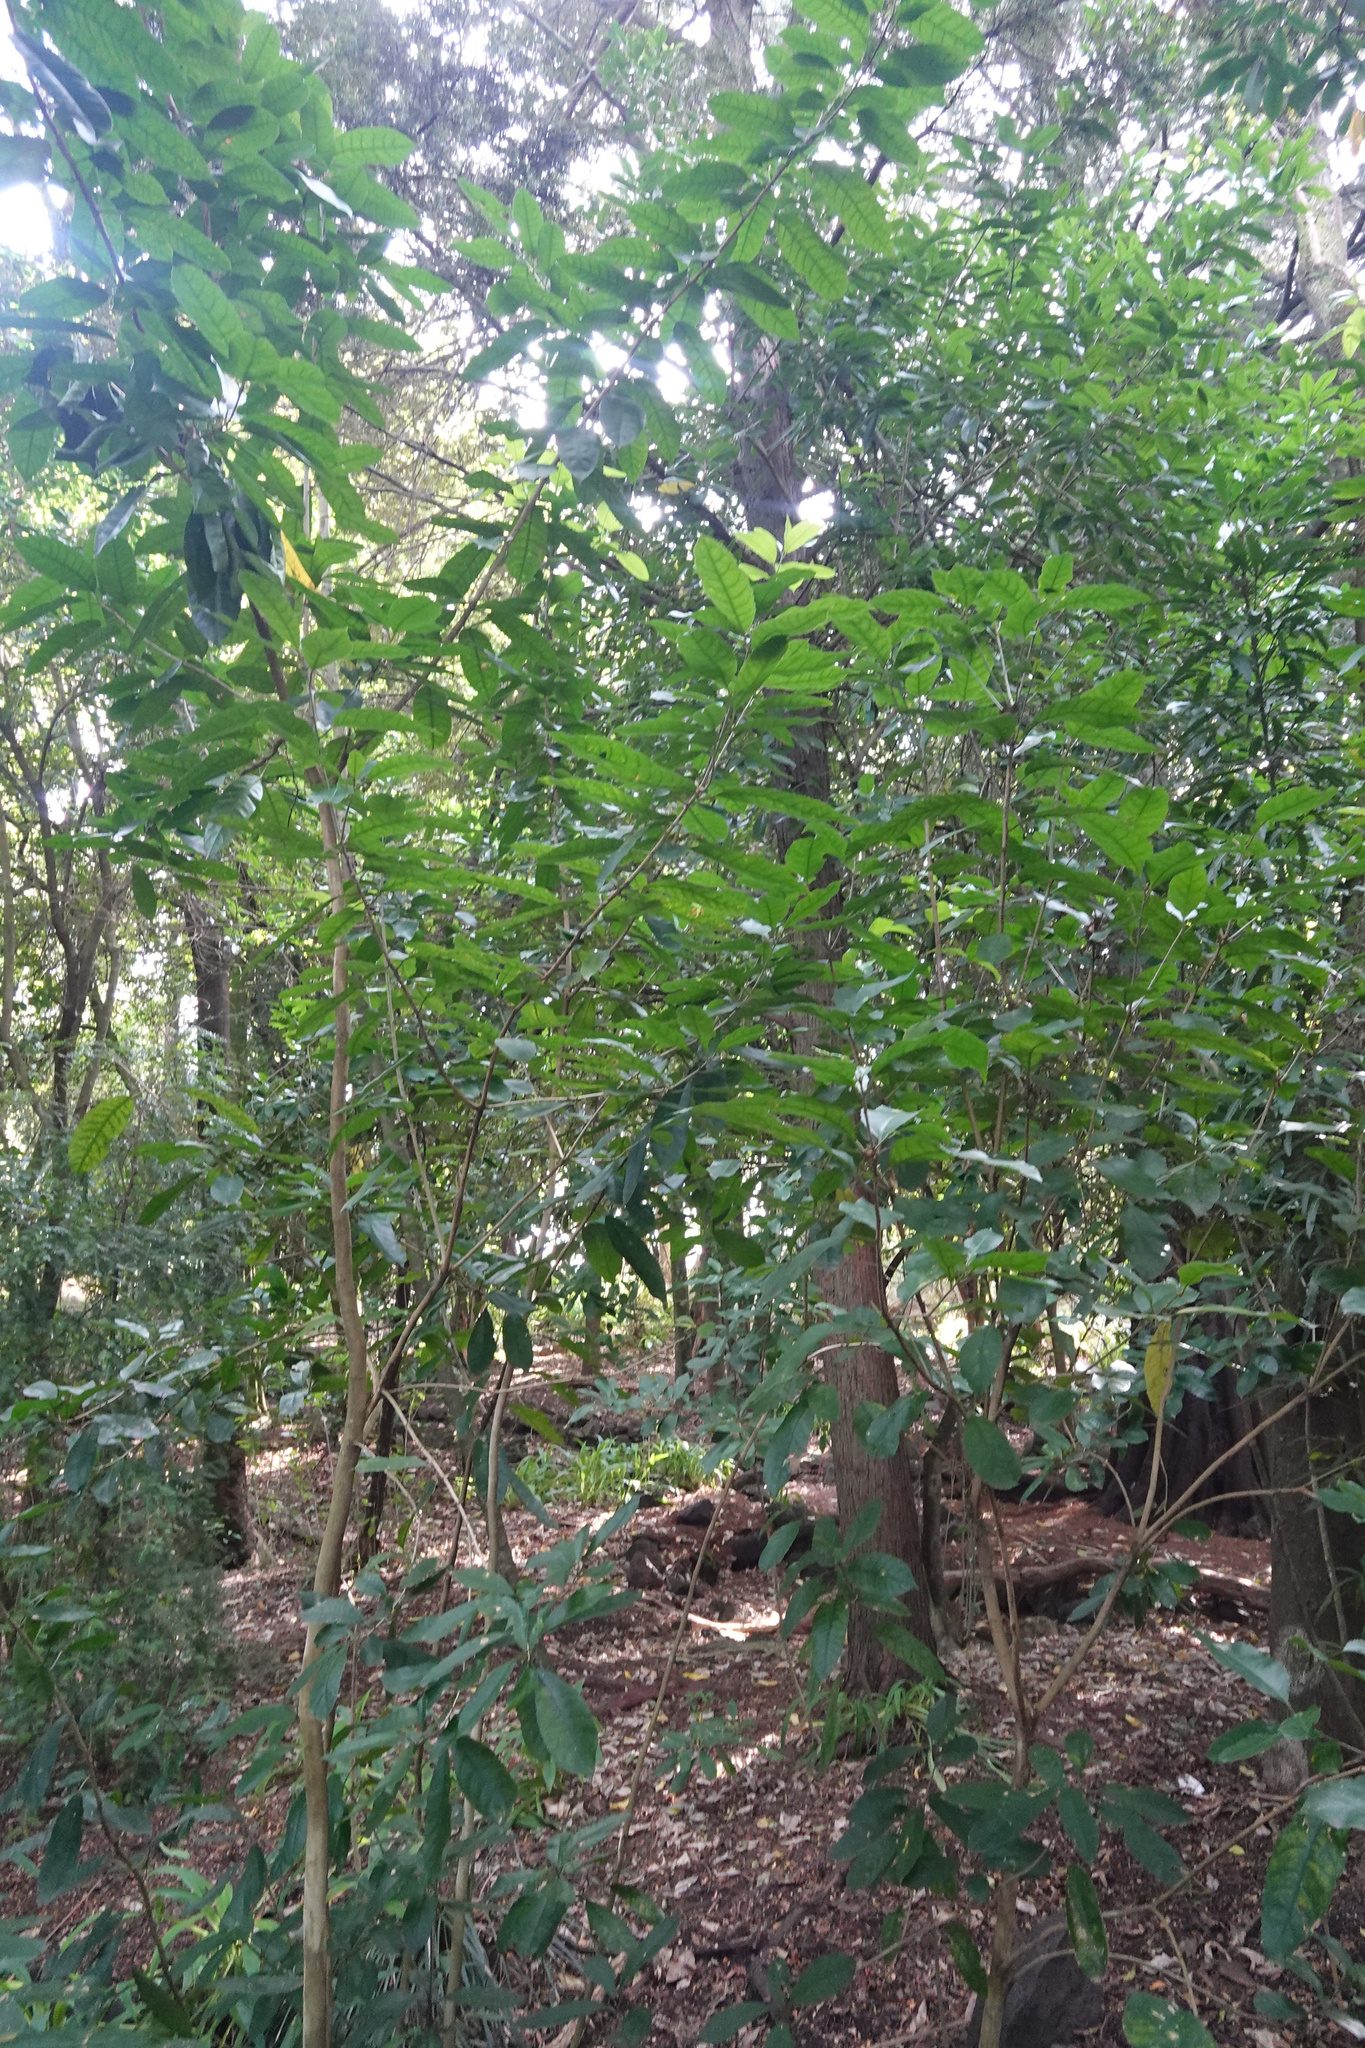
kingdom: Plantae
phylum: Tracheophyta
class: Magnoliopsida
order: Malpighiales
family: Violaceae
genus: Melicytus
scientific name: Melicytus ramiflorus
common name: Mahoe
